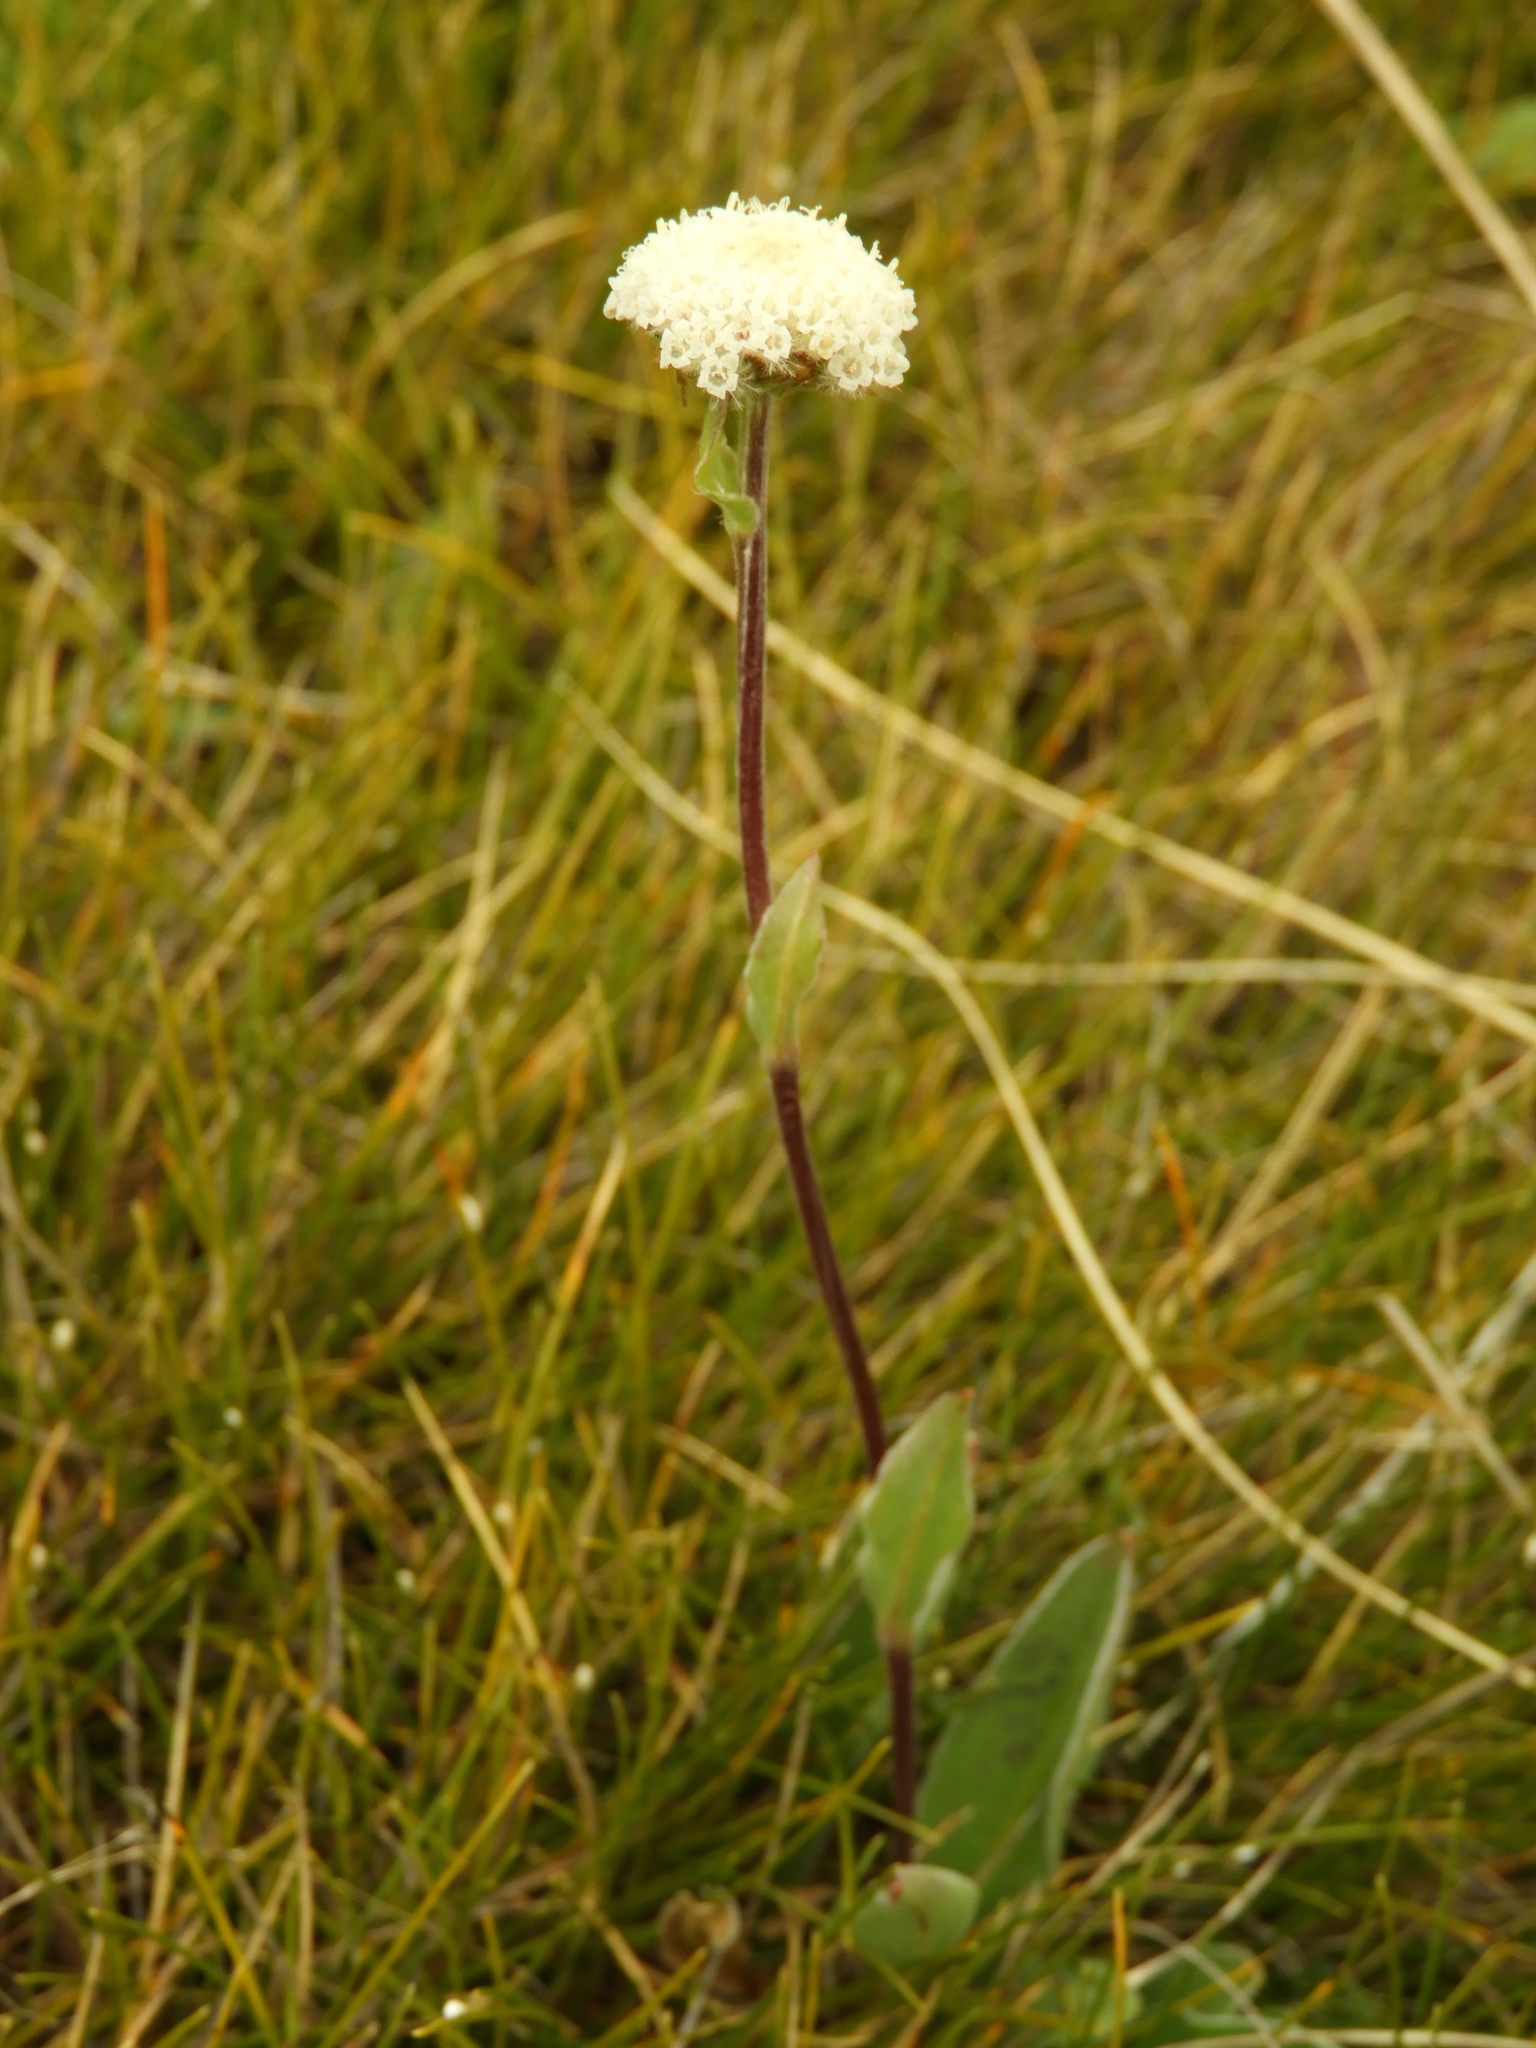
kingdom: Plantae
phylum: Tracheophyta
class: Magnoliopsida
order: Asterales
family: Asteraceae
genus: Craspedia
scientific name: Craspedia uniflora
